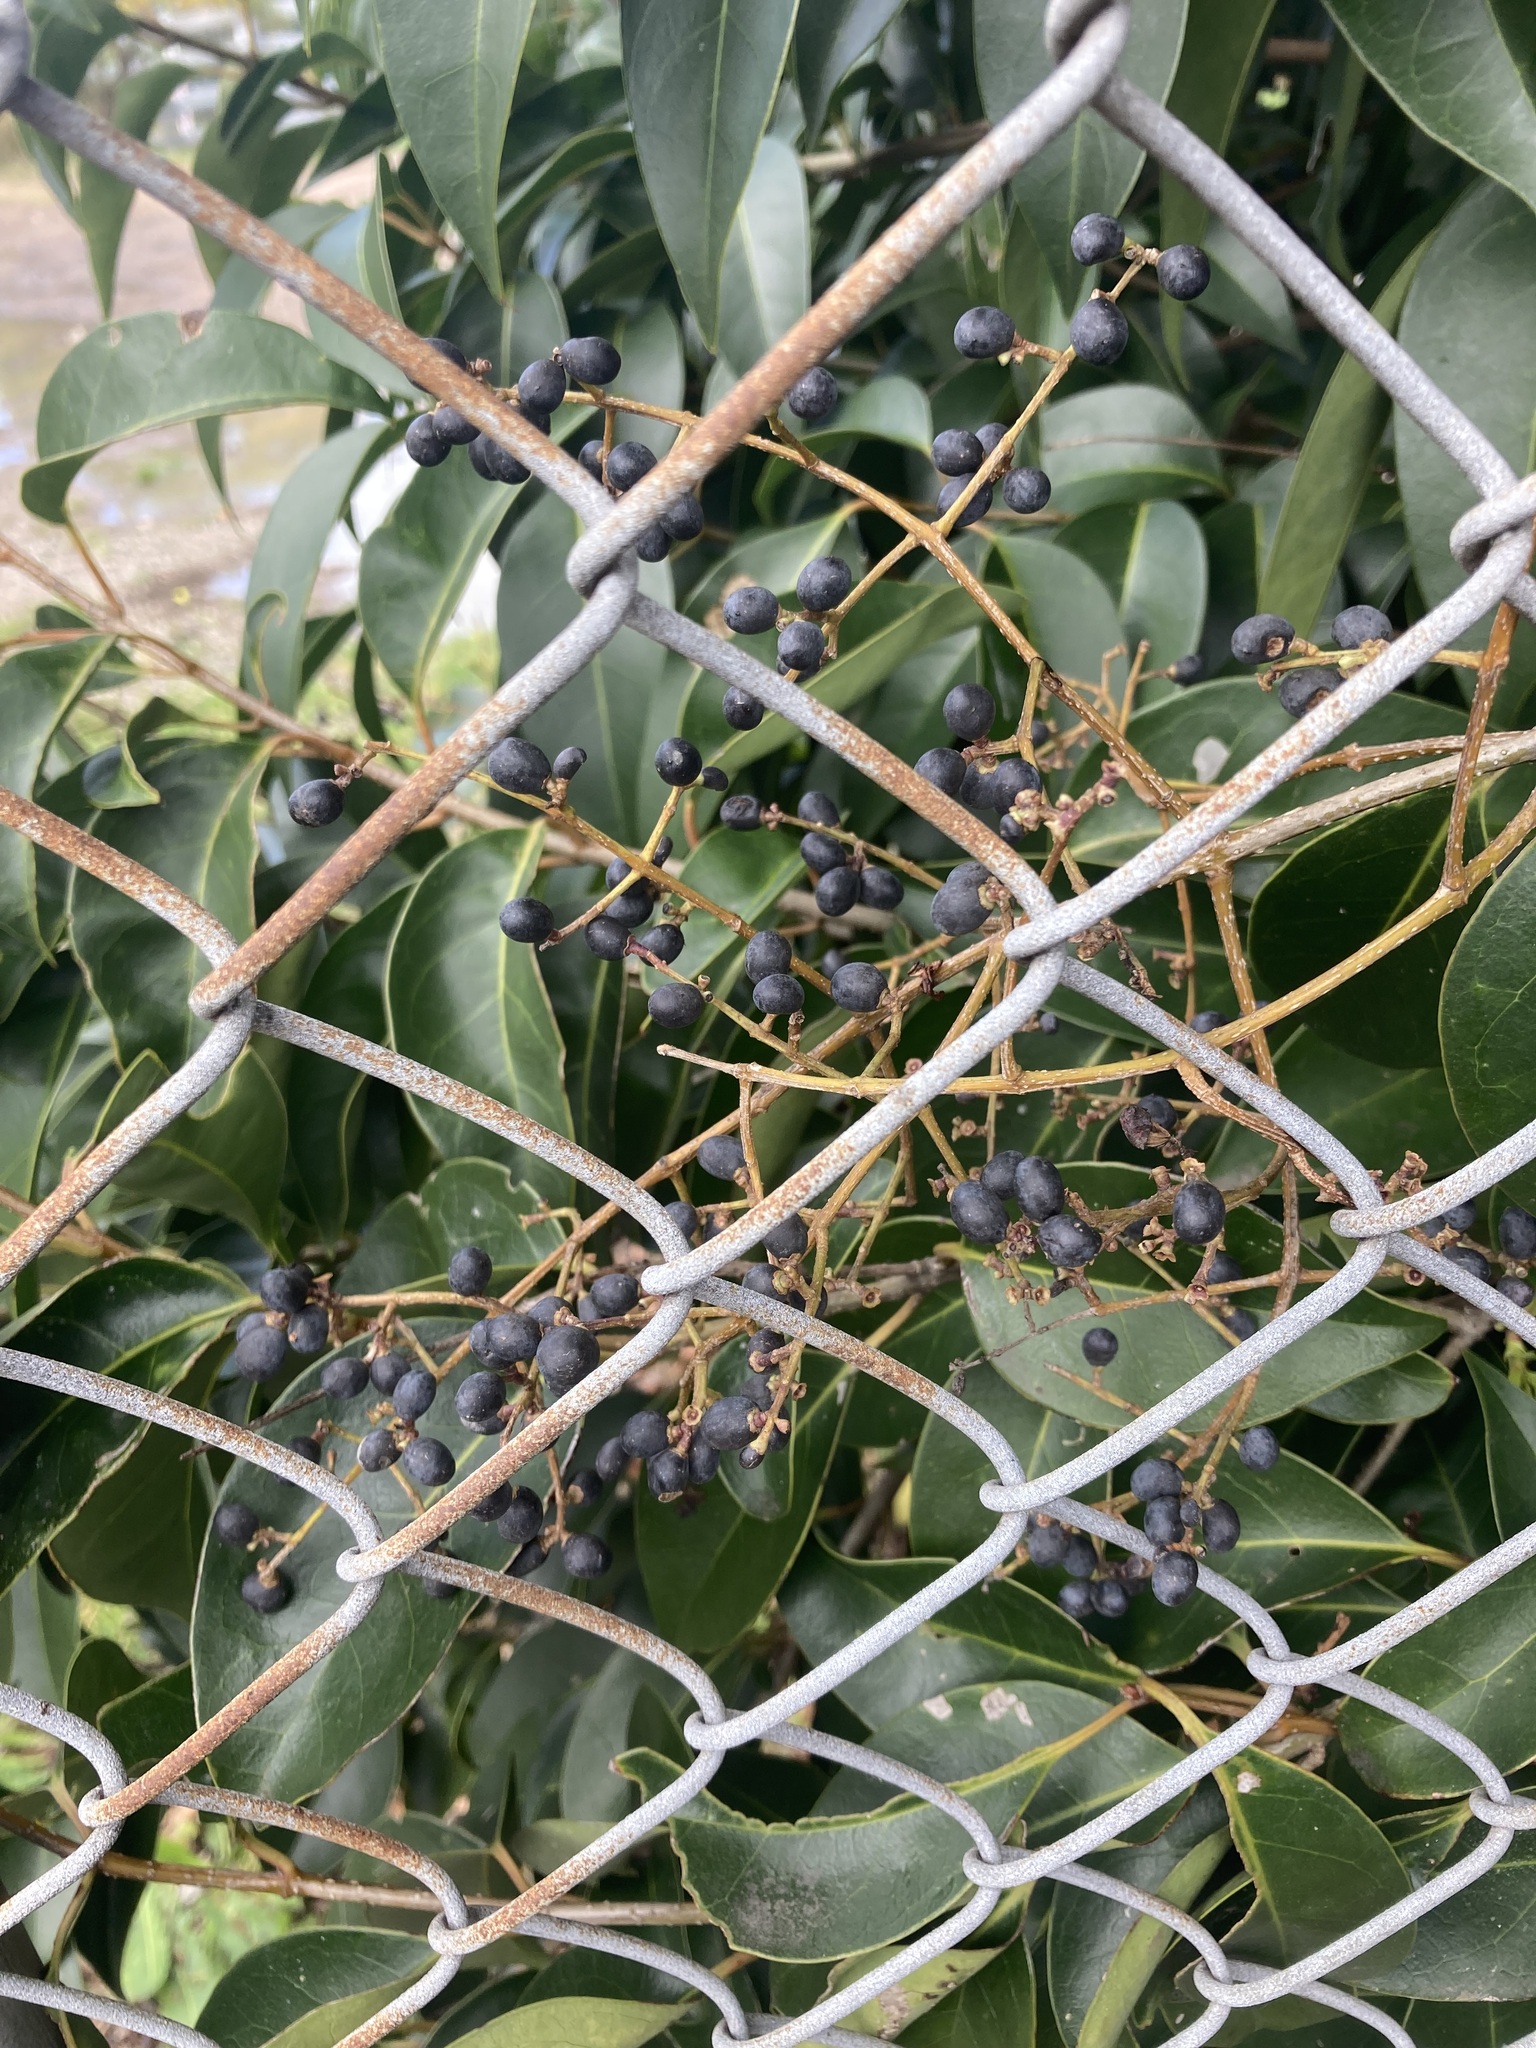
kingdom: Plantae
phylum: Tracheophyta
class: Magnoliopsida
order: Lamiales
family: Oleaceae
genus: Ligustrum
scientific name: Ligustrum lucidum
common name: Glossy privet
